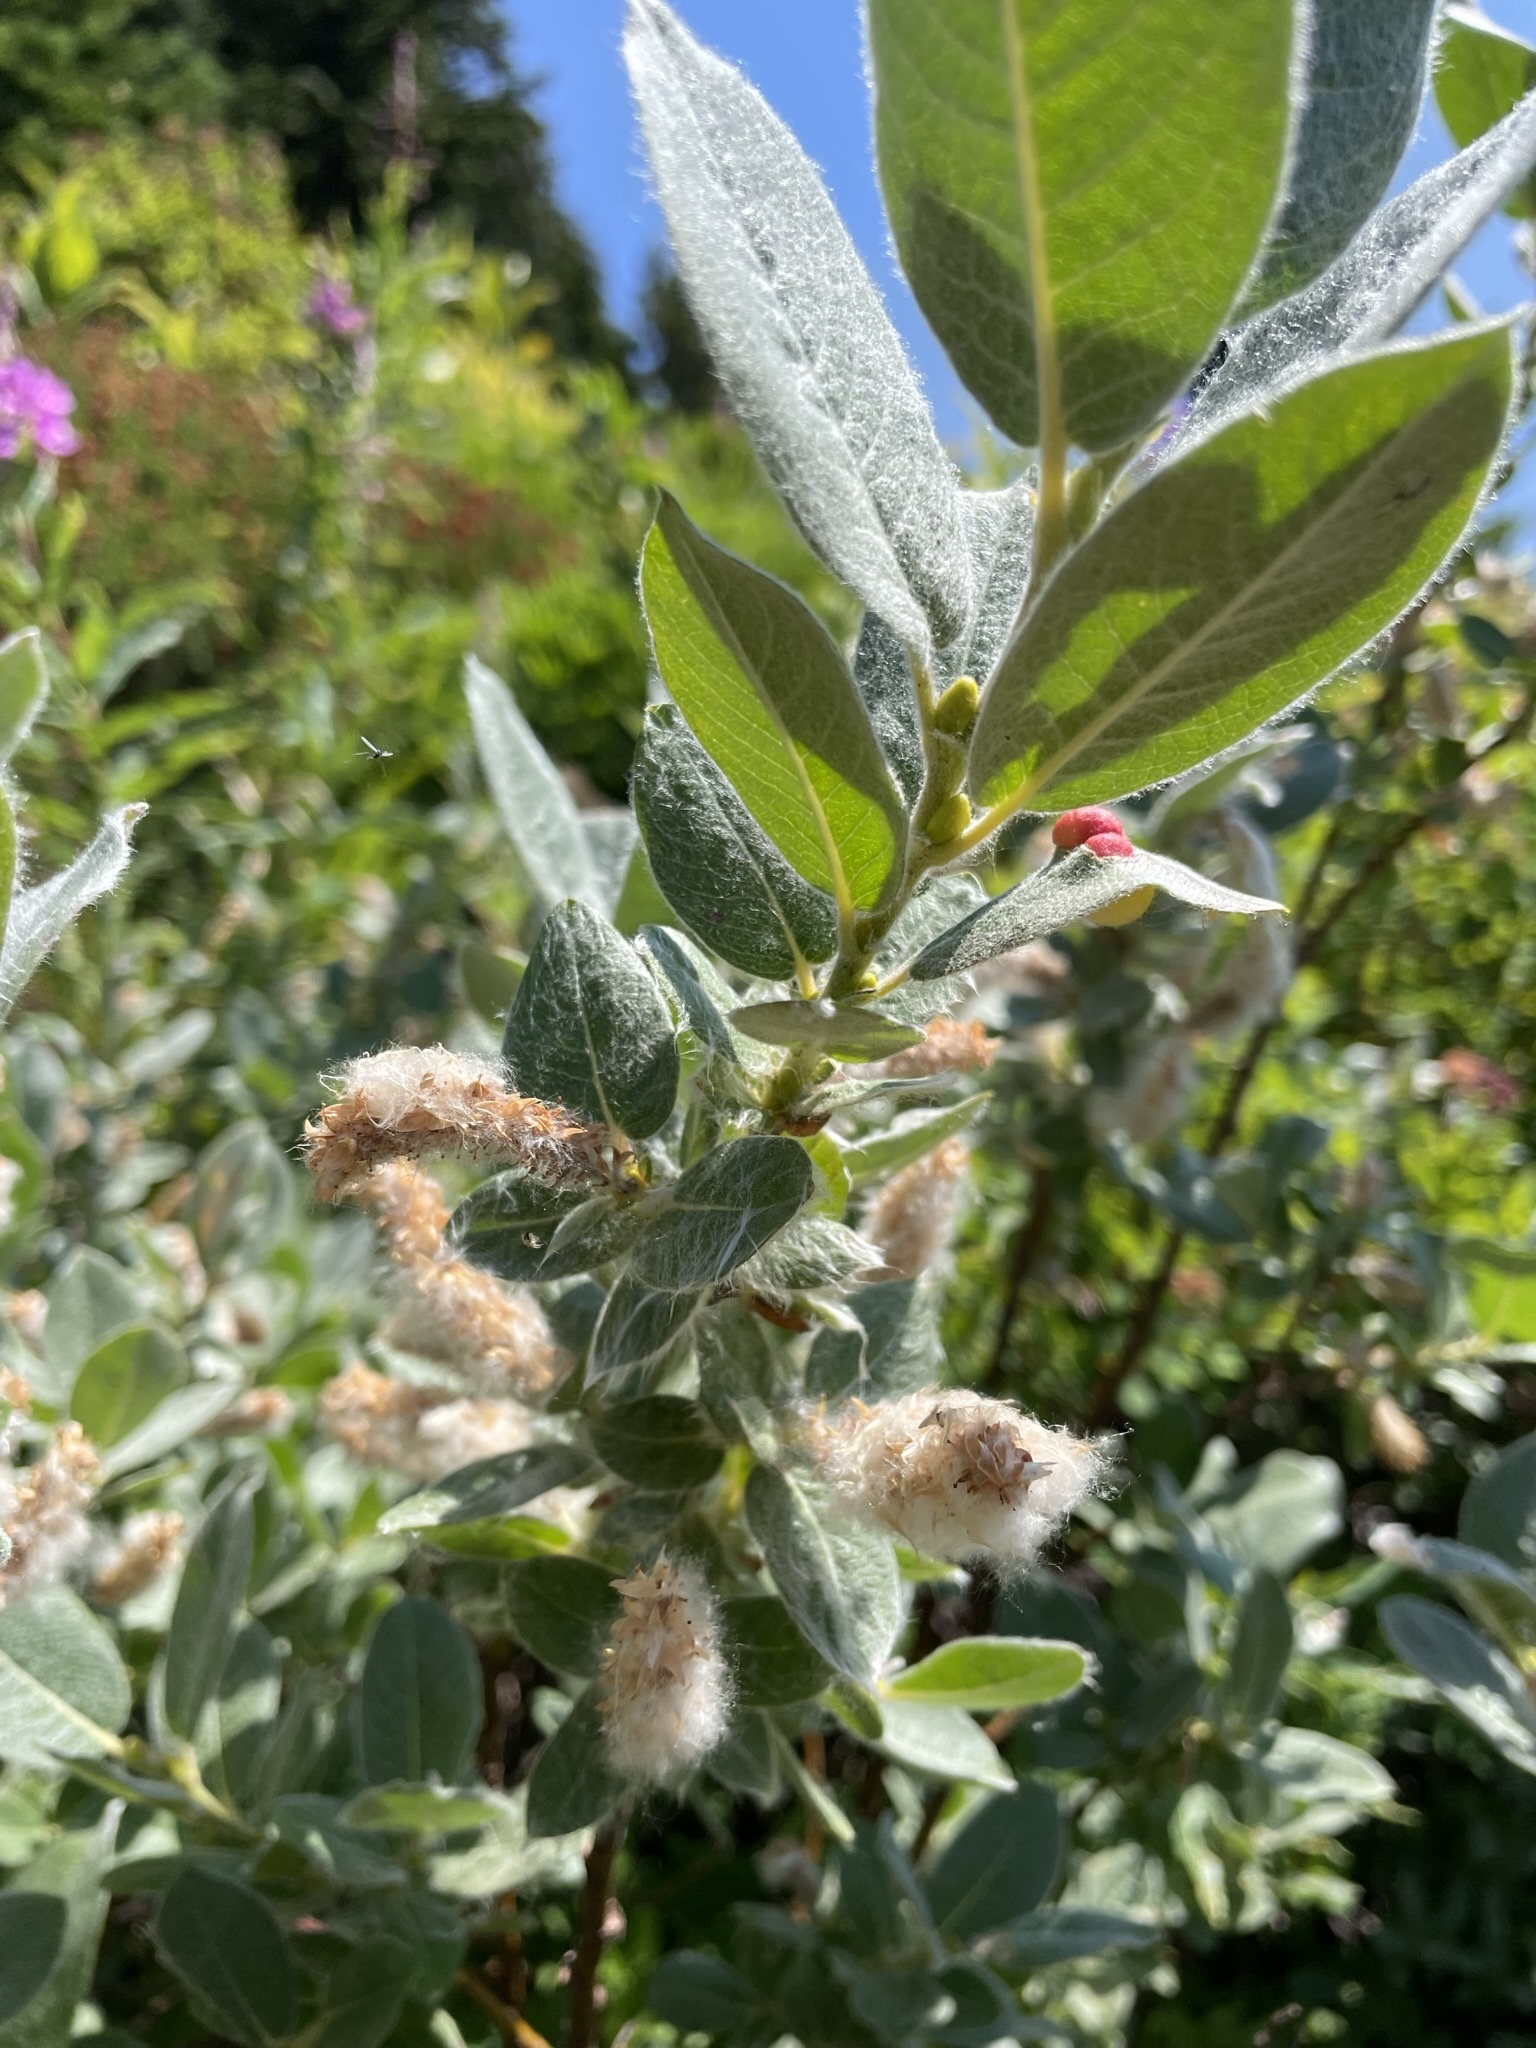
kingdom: Plantae
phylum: Tracheophyta
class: Magnoliopsida
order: Malpighiales
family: Salicaceae
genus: Salix
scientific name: Salix commutata
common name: Under-green willow
